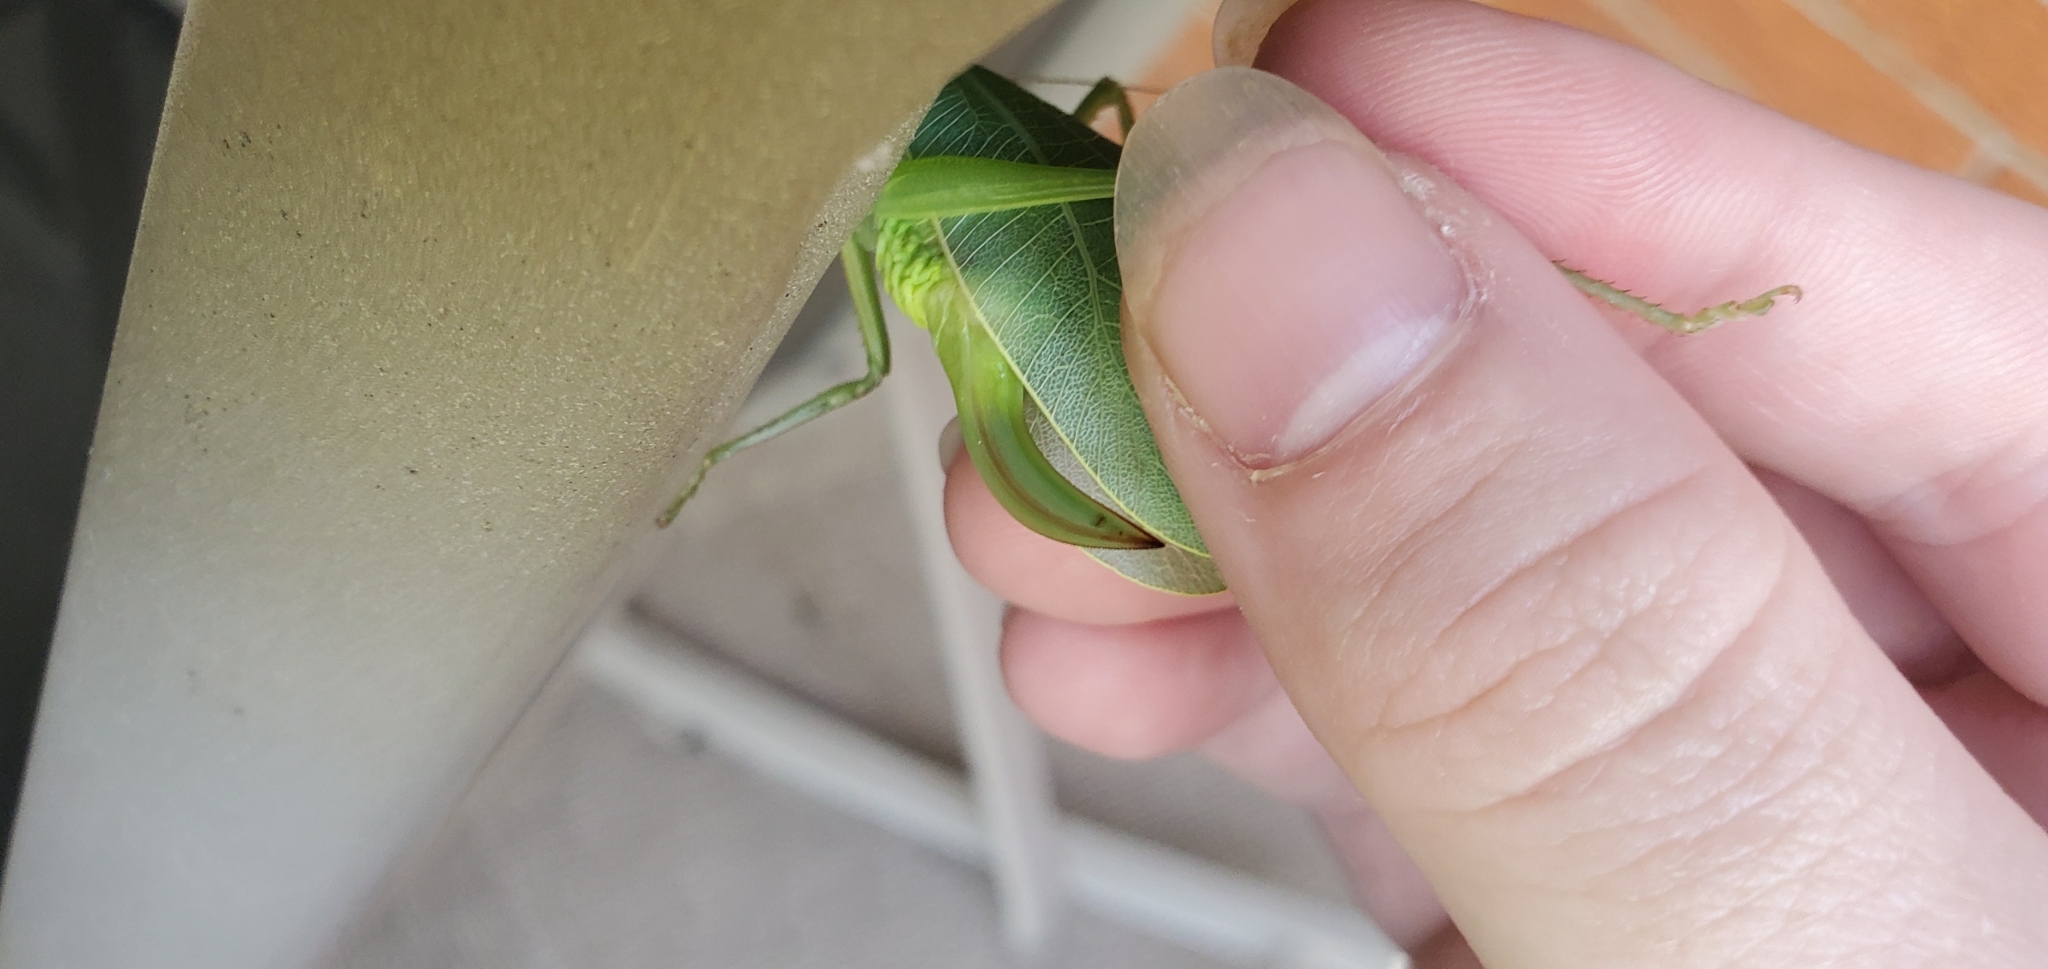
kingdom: Animalia
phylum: Arthropoda
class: Insecta
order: Orthoptera
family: Tettigoniidae
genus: Pterophylla
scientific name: Pterophylla camellifolia
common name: Common true katydid
